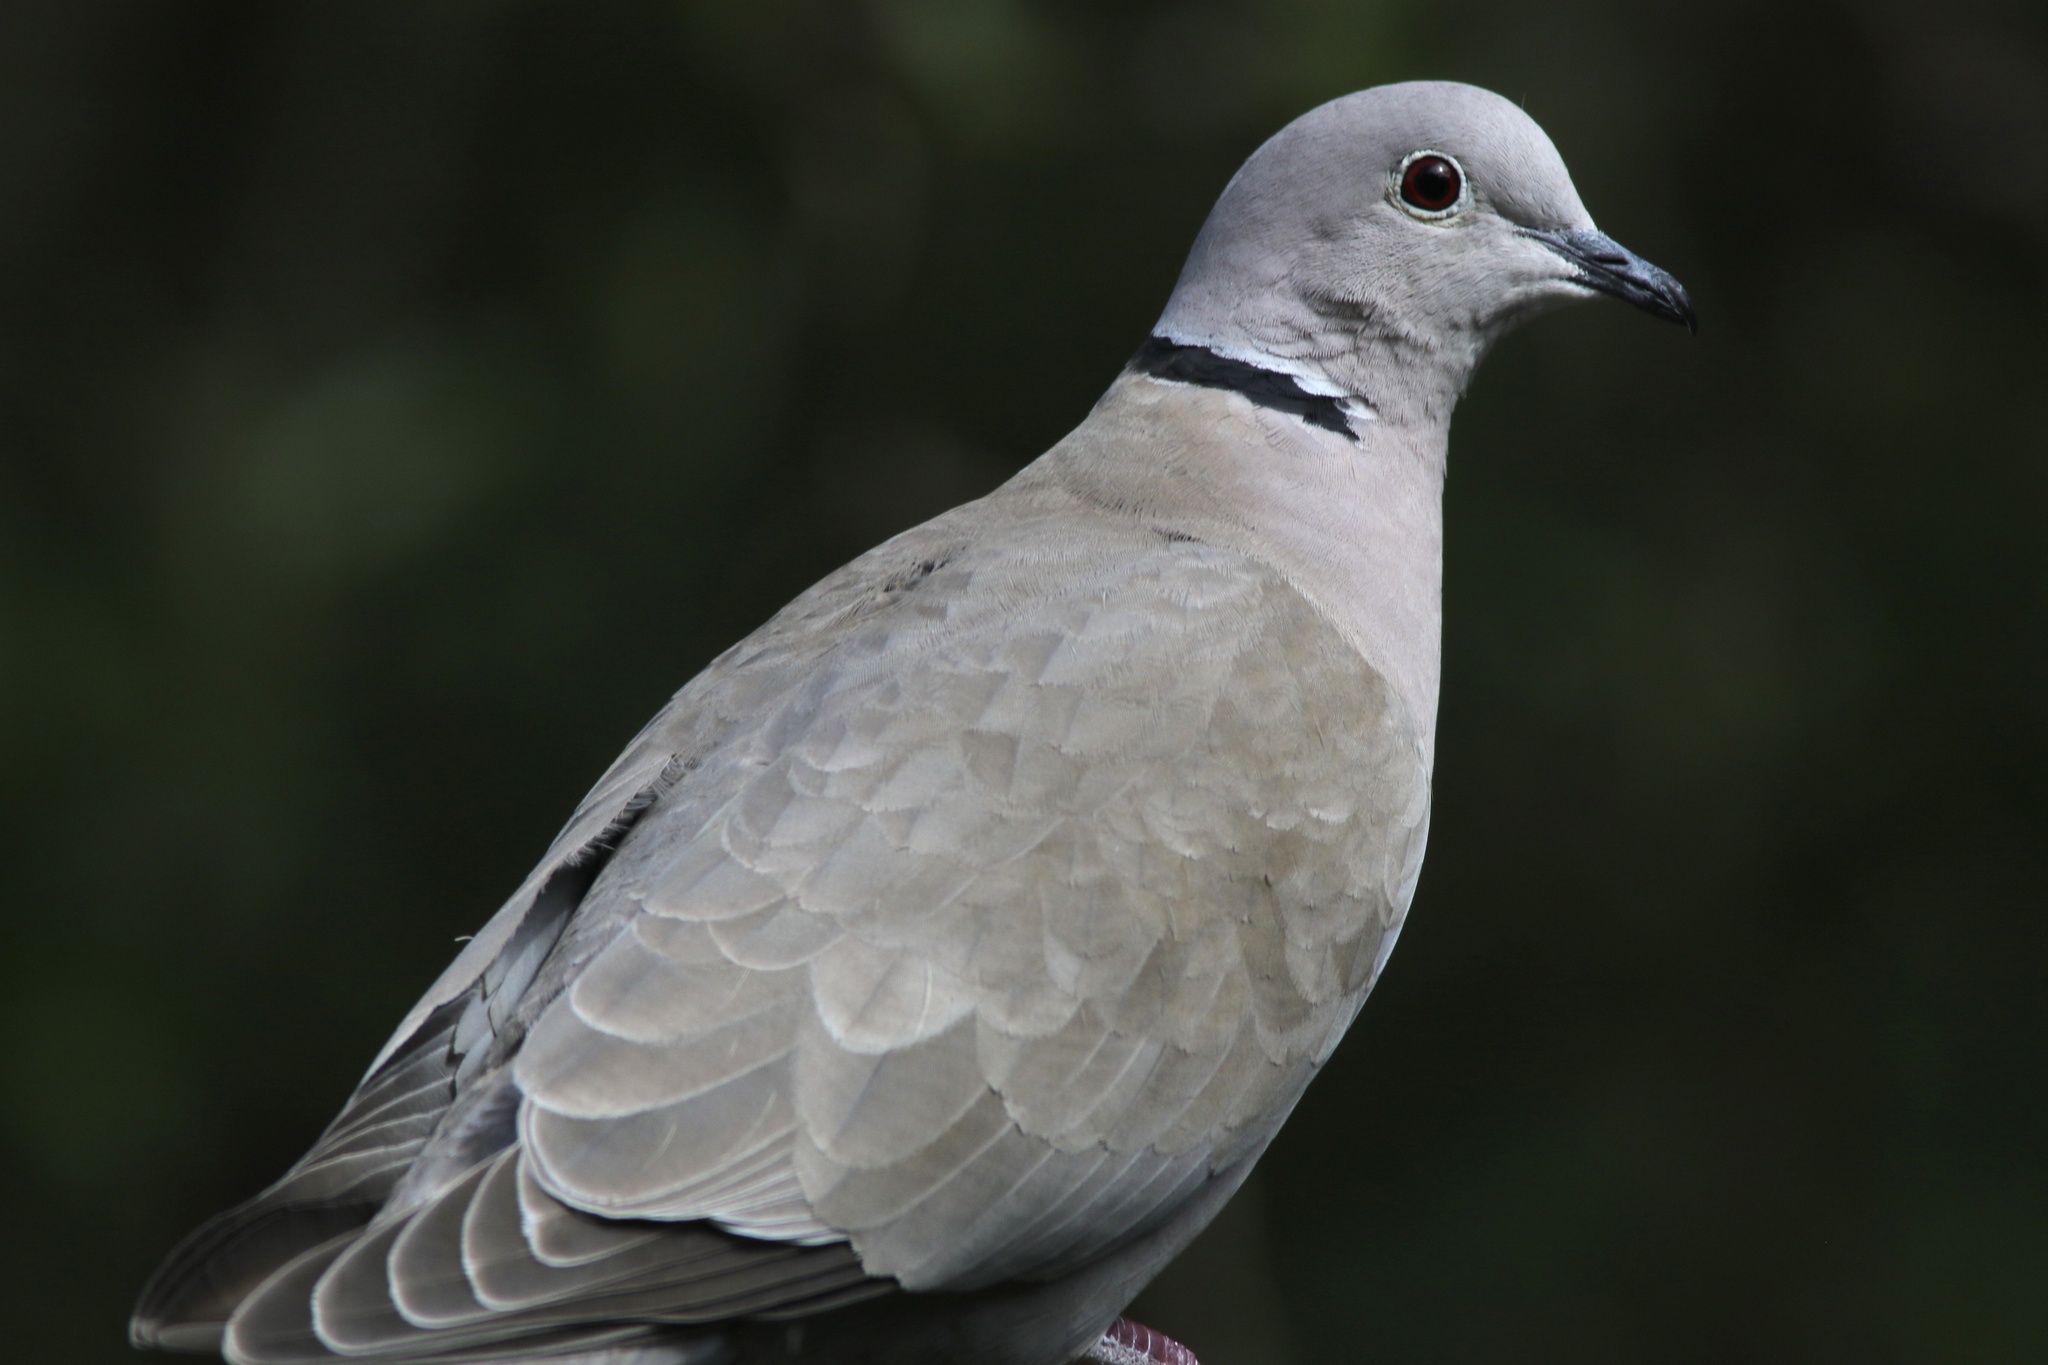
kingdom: Animalia
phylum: Chordata
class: Aves
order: Columbiformes
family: Columbidae
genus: Streptopelia
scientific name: Streptopelia decaocto
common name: Eurasian collared dove
